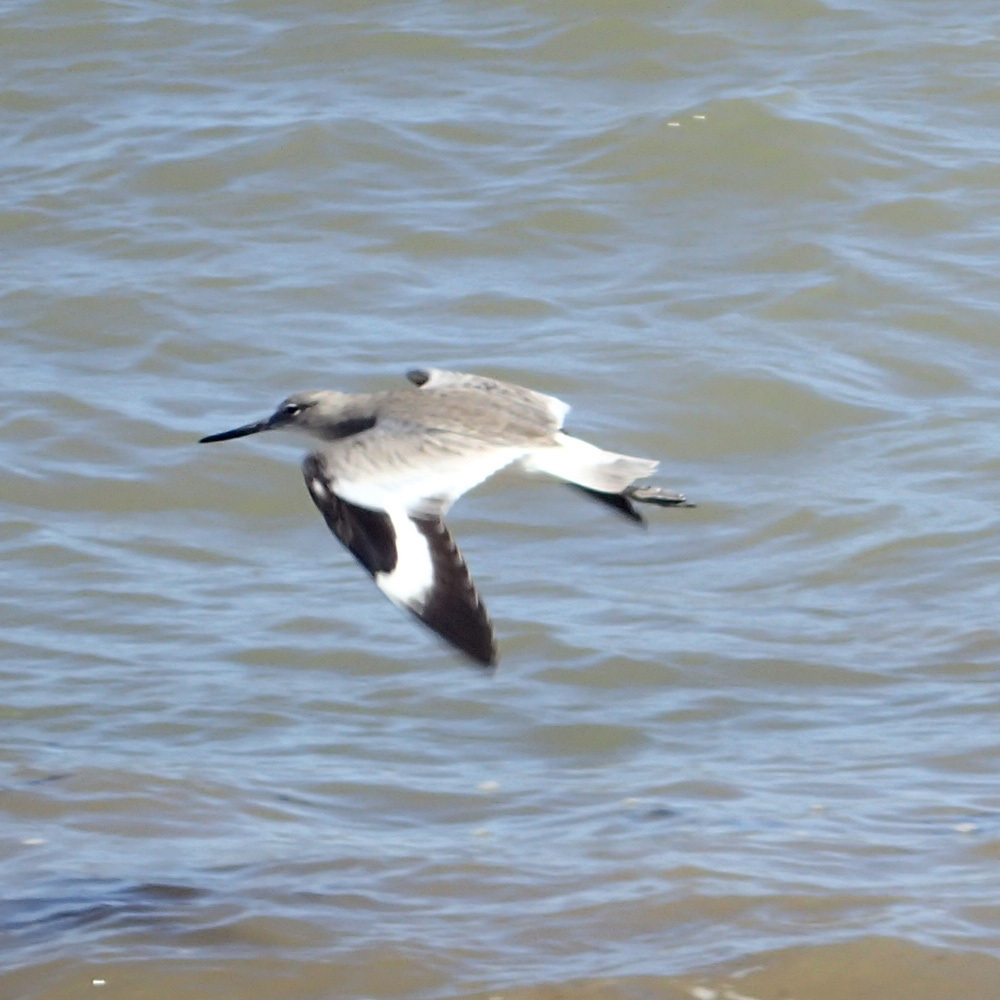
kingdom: Animalia
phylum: Chordata
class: Aves
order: Charadriiformes
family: Scolopacidae
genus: Tringa
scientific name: Tringa semipalmata
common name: Willet
